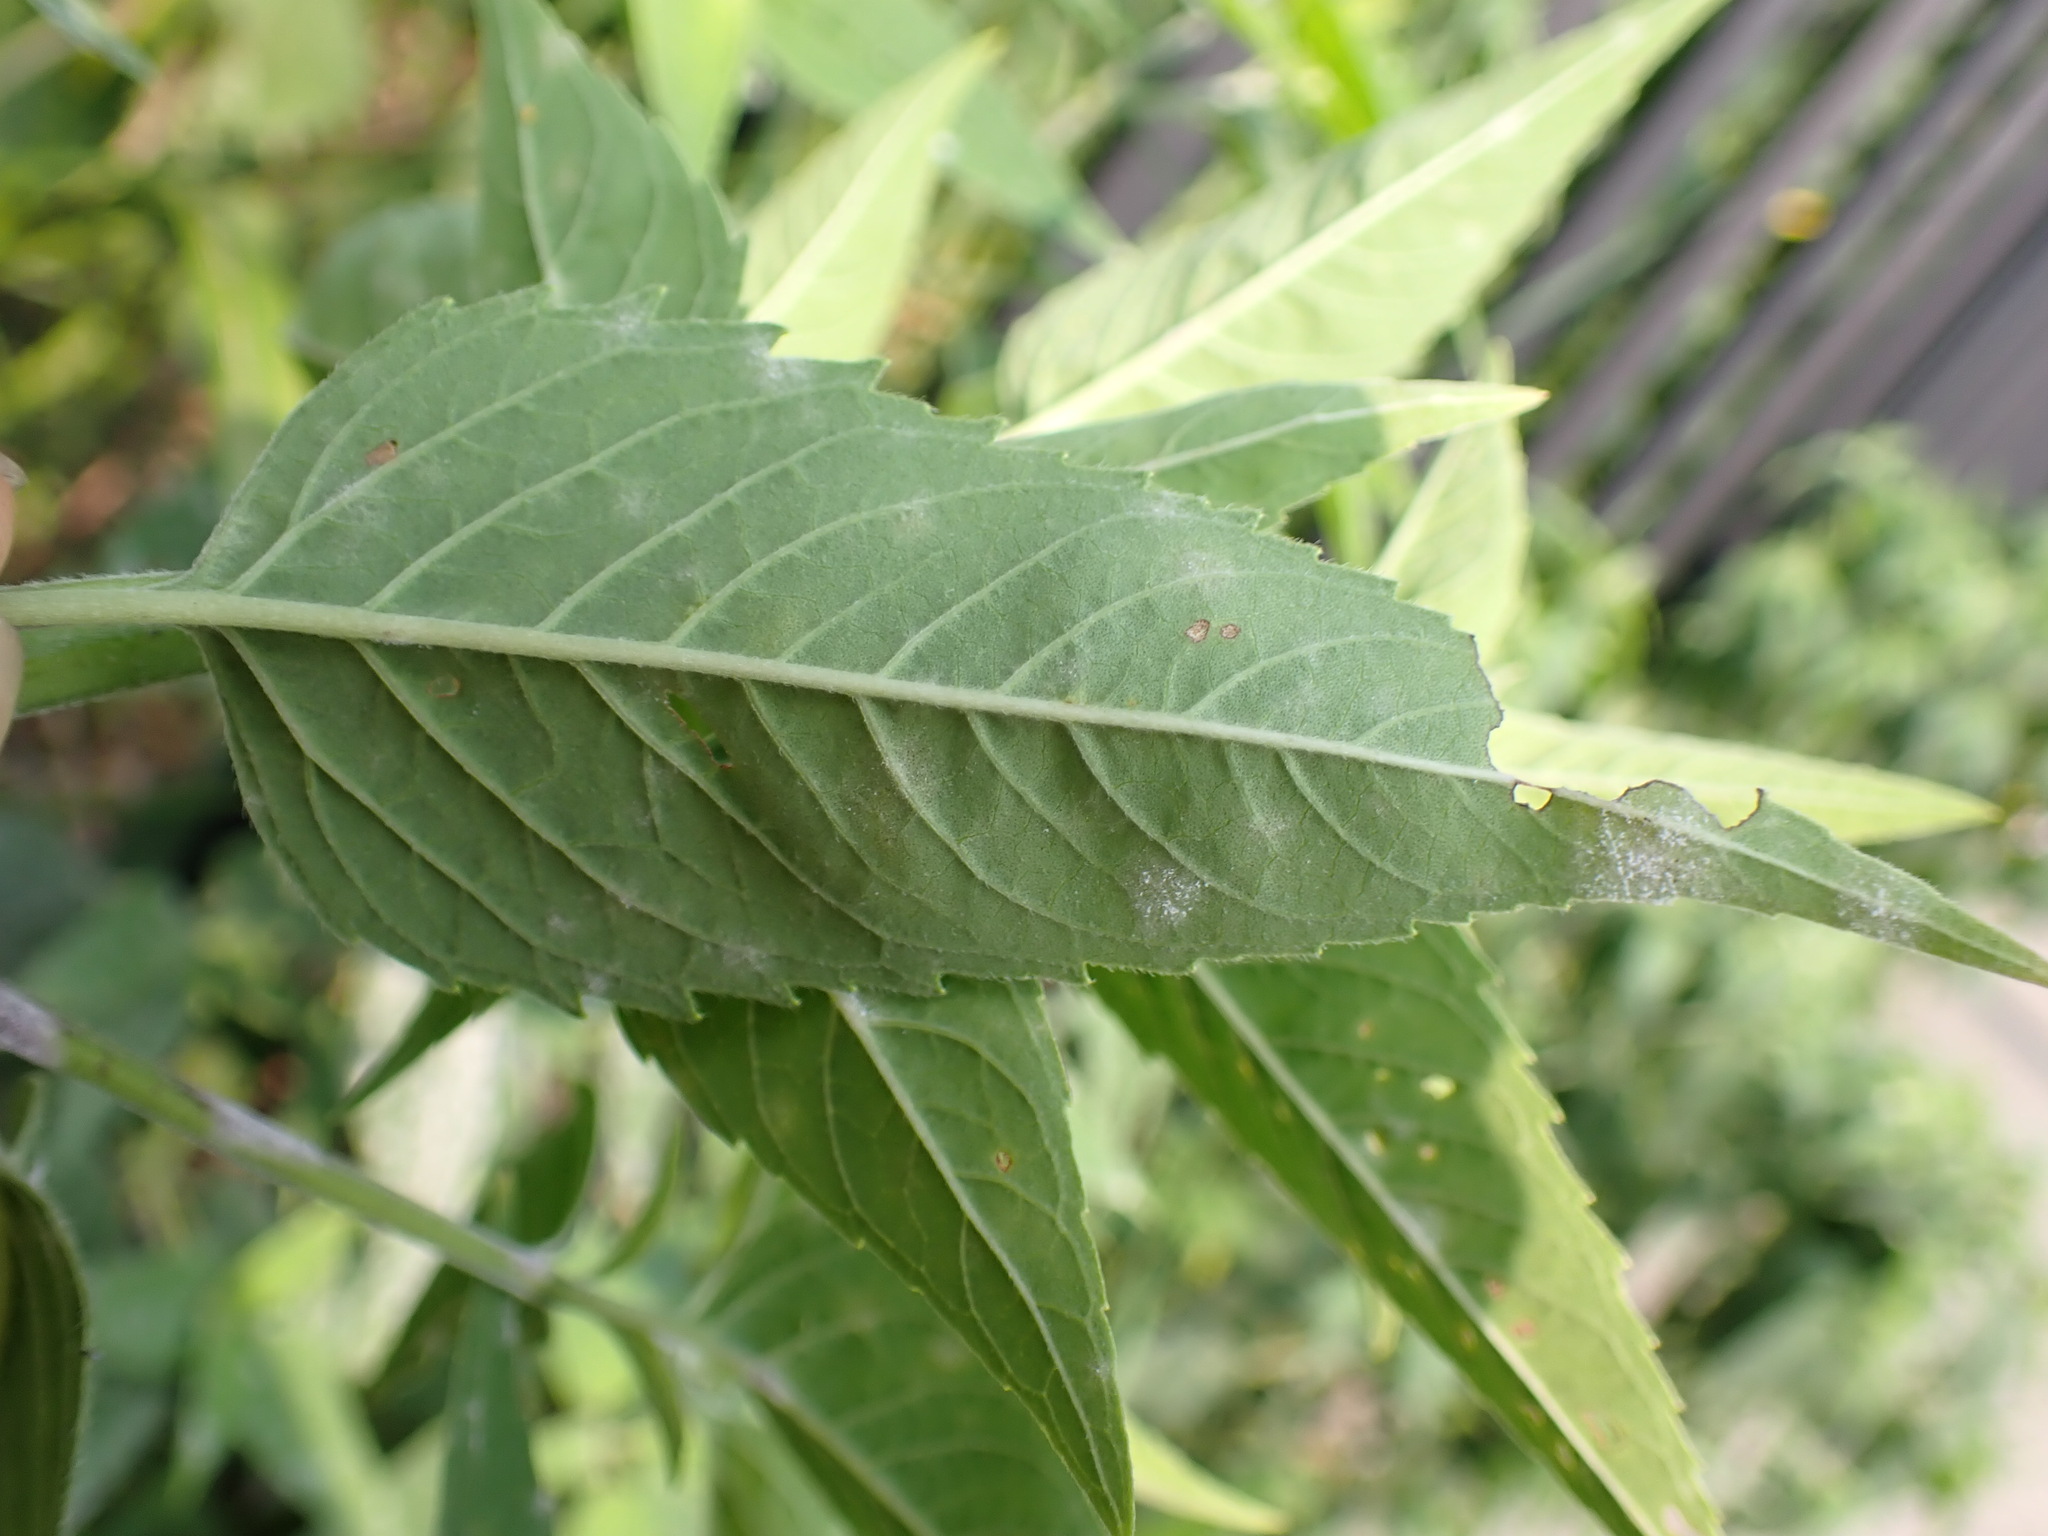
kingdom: Fungi
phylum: Ascomycota
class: Leotiomycetes
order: Helotiales
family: Erysiphaceae
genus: Golovinomyces
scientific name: Golovinomyces monardae
